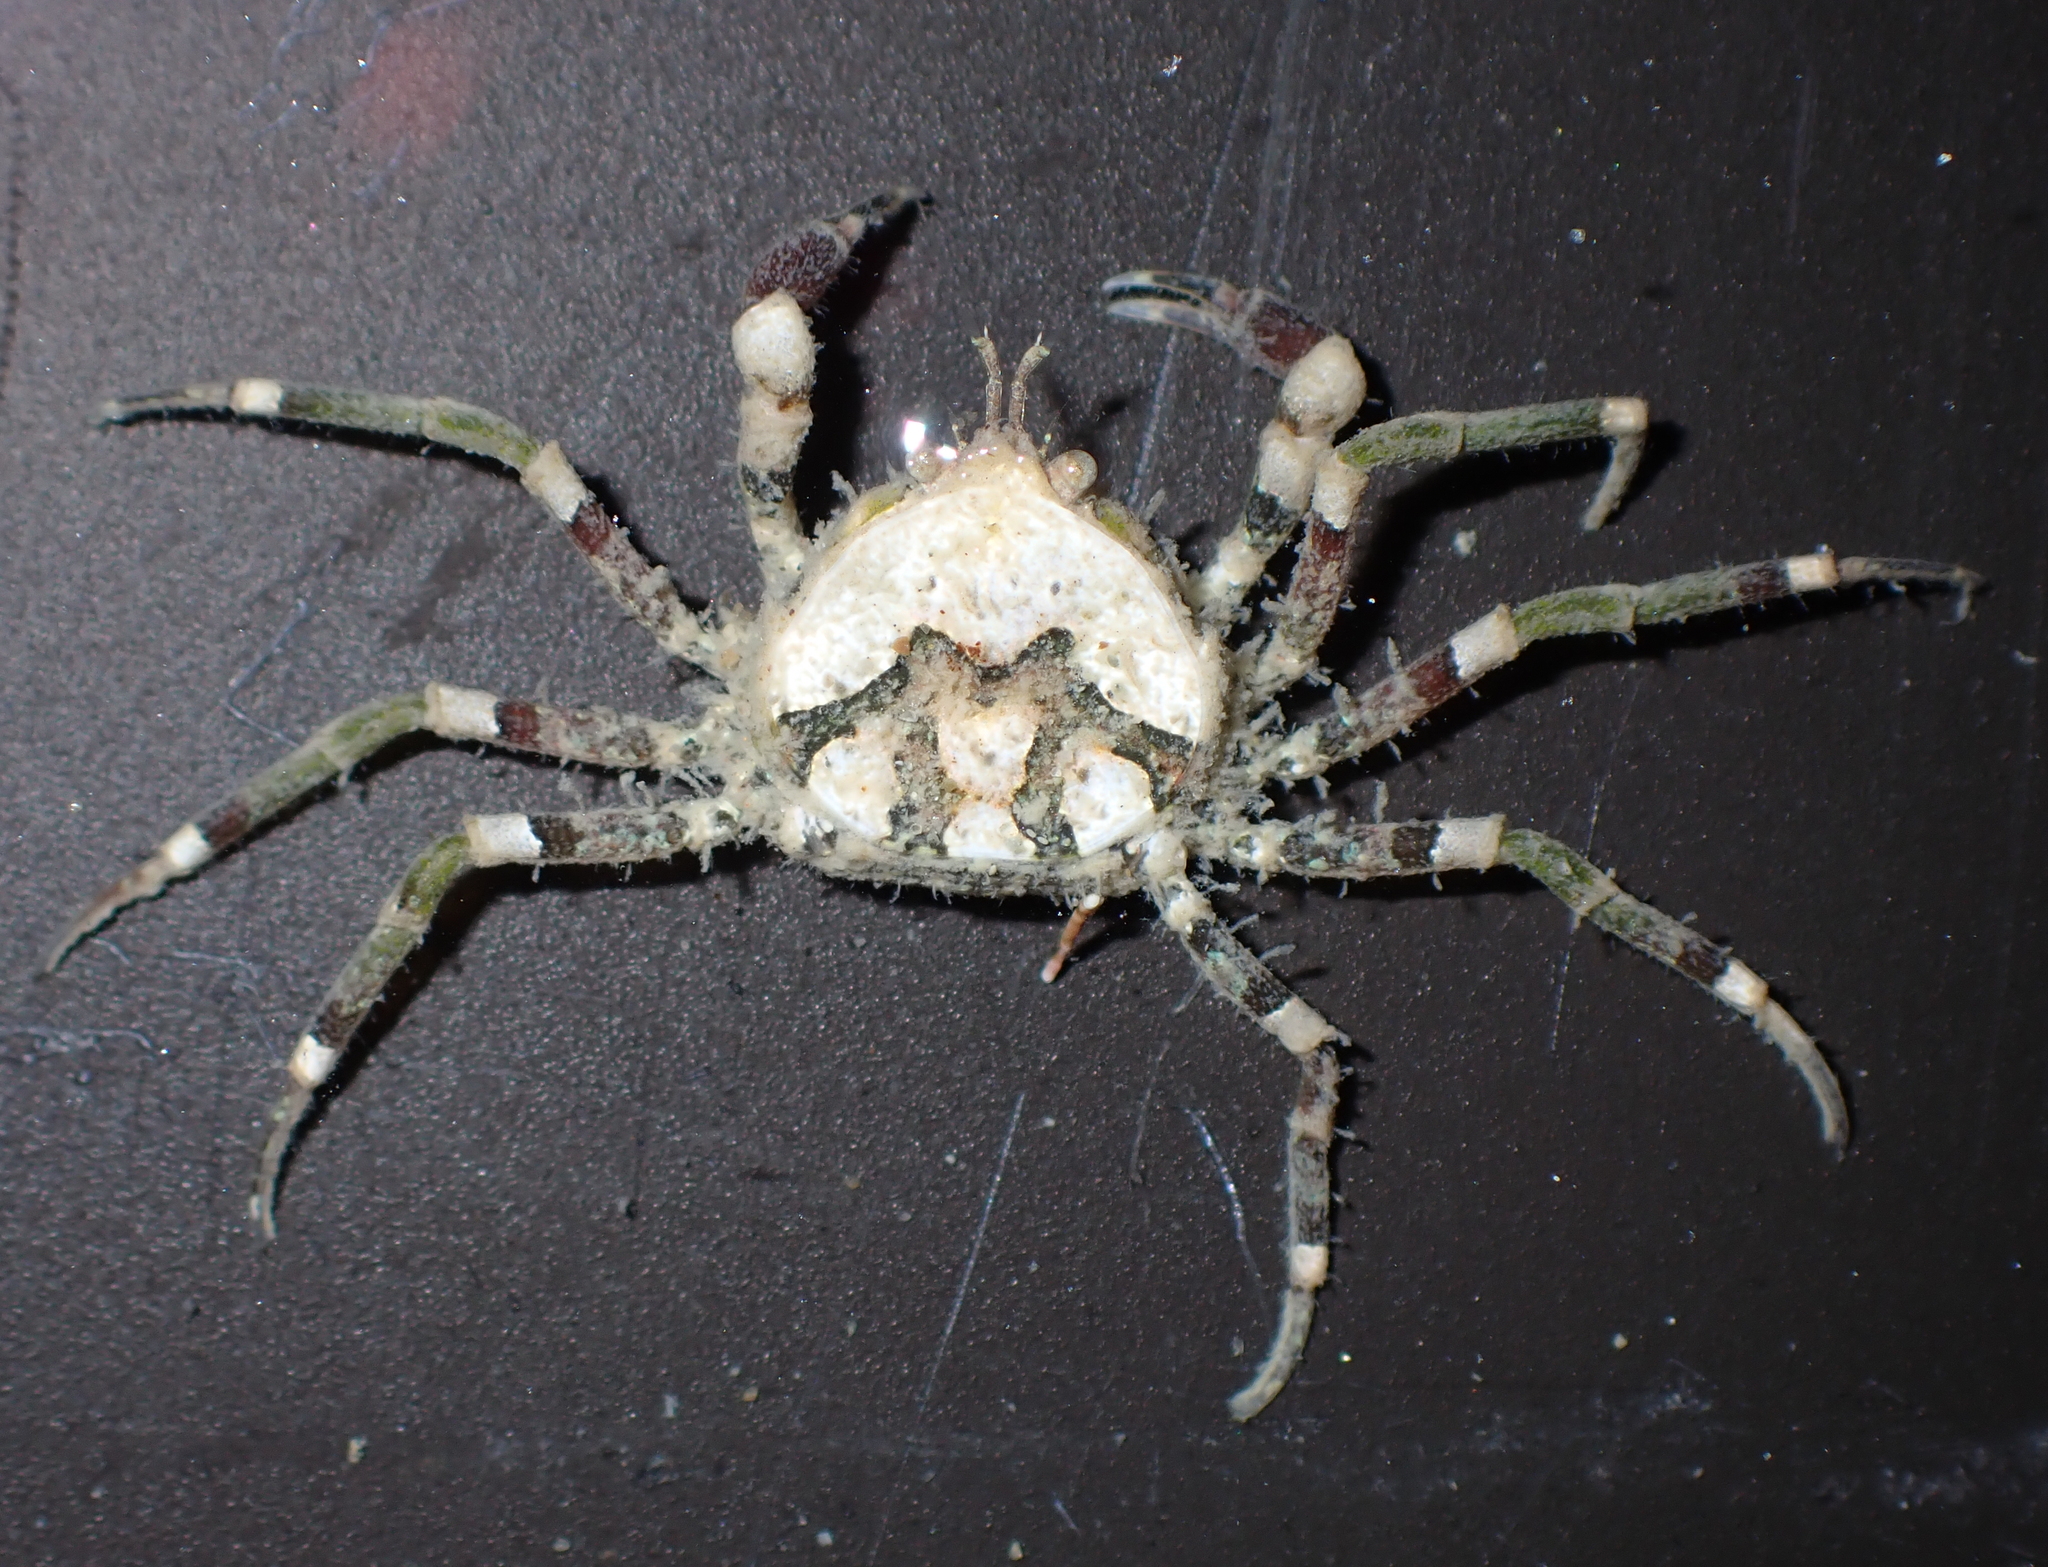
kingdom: Animalia
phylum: Arthropoda
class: Malacostraca
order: Decapoda
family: Hymenosomatidae
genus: Halicarcinus
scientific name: Halicarcinus varius
